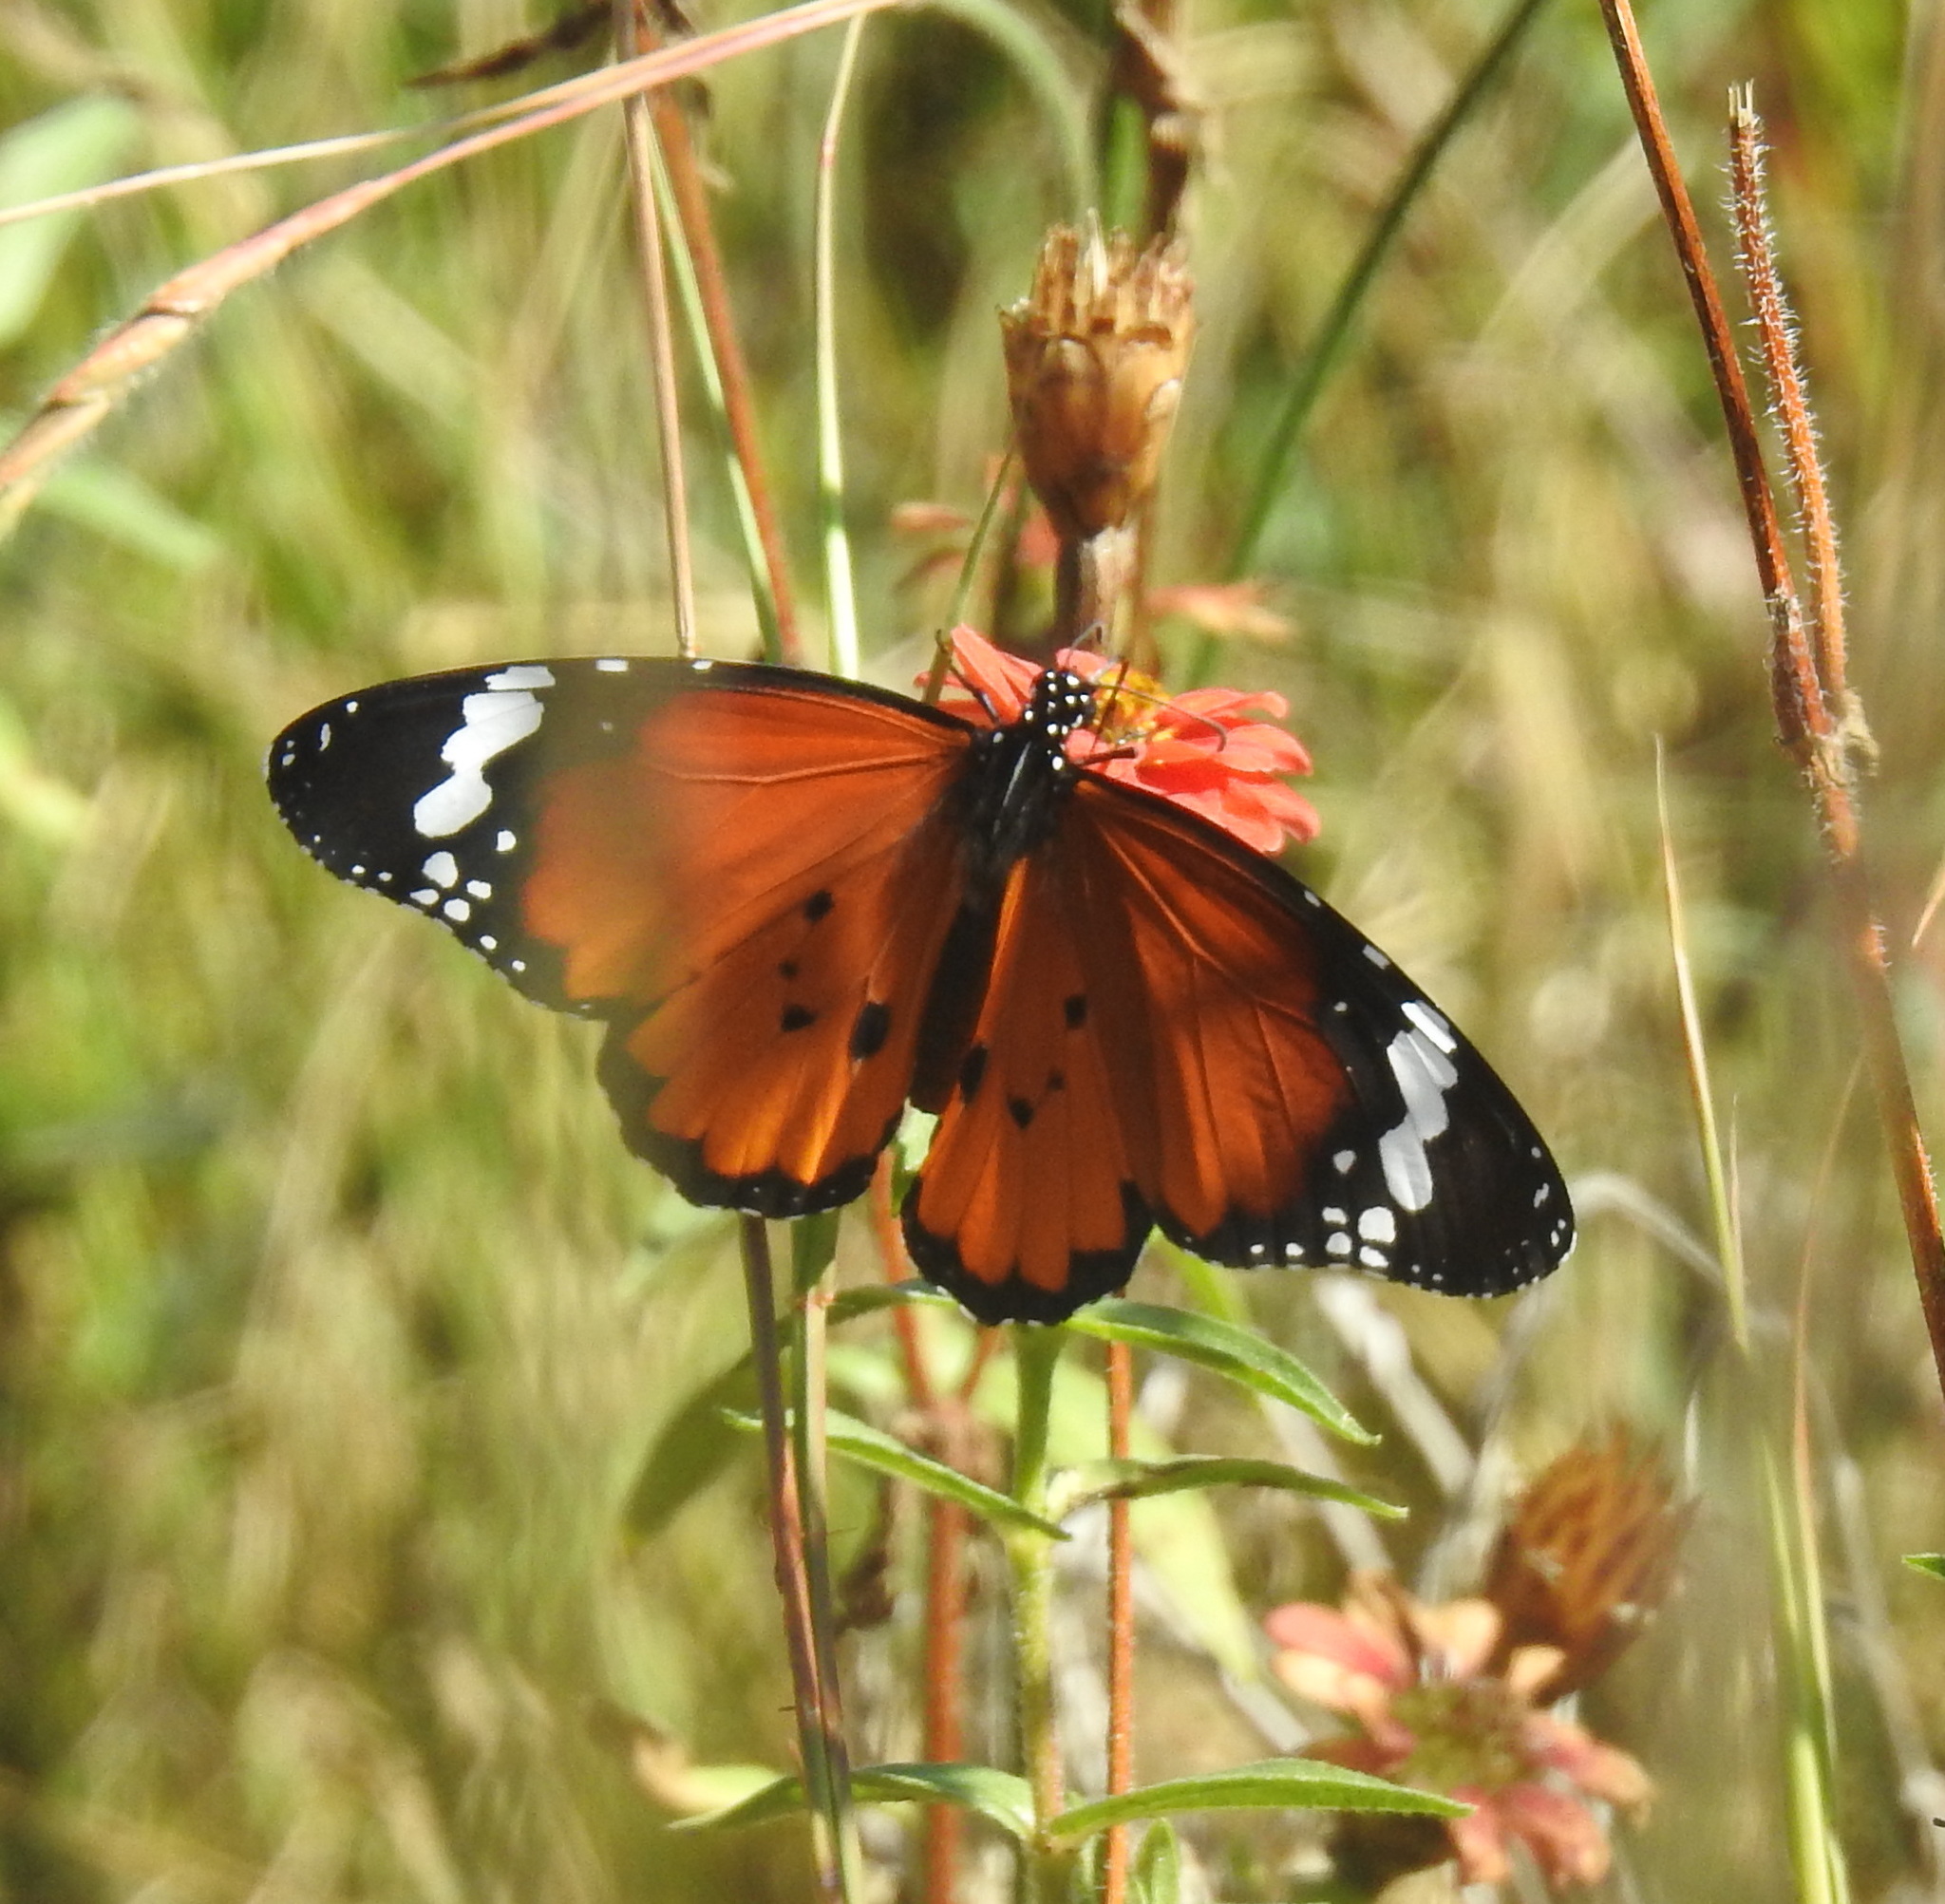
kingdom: Animalia
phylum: Arthropoda
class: Insecta
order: Lepidoptera
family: Nymphalidae
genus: Danaus
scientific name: Danaus chrysippus
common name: Plain tiger
